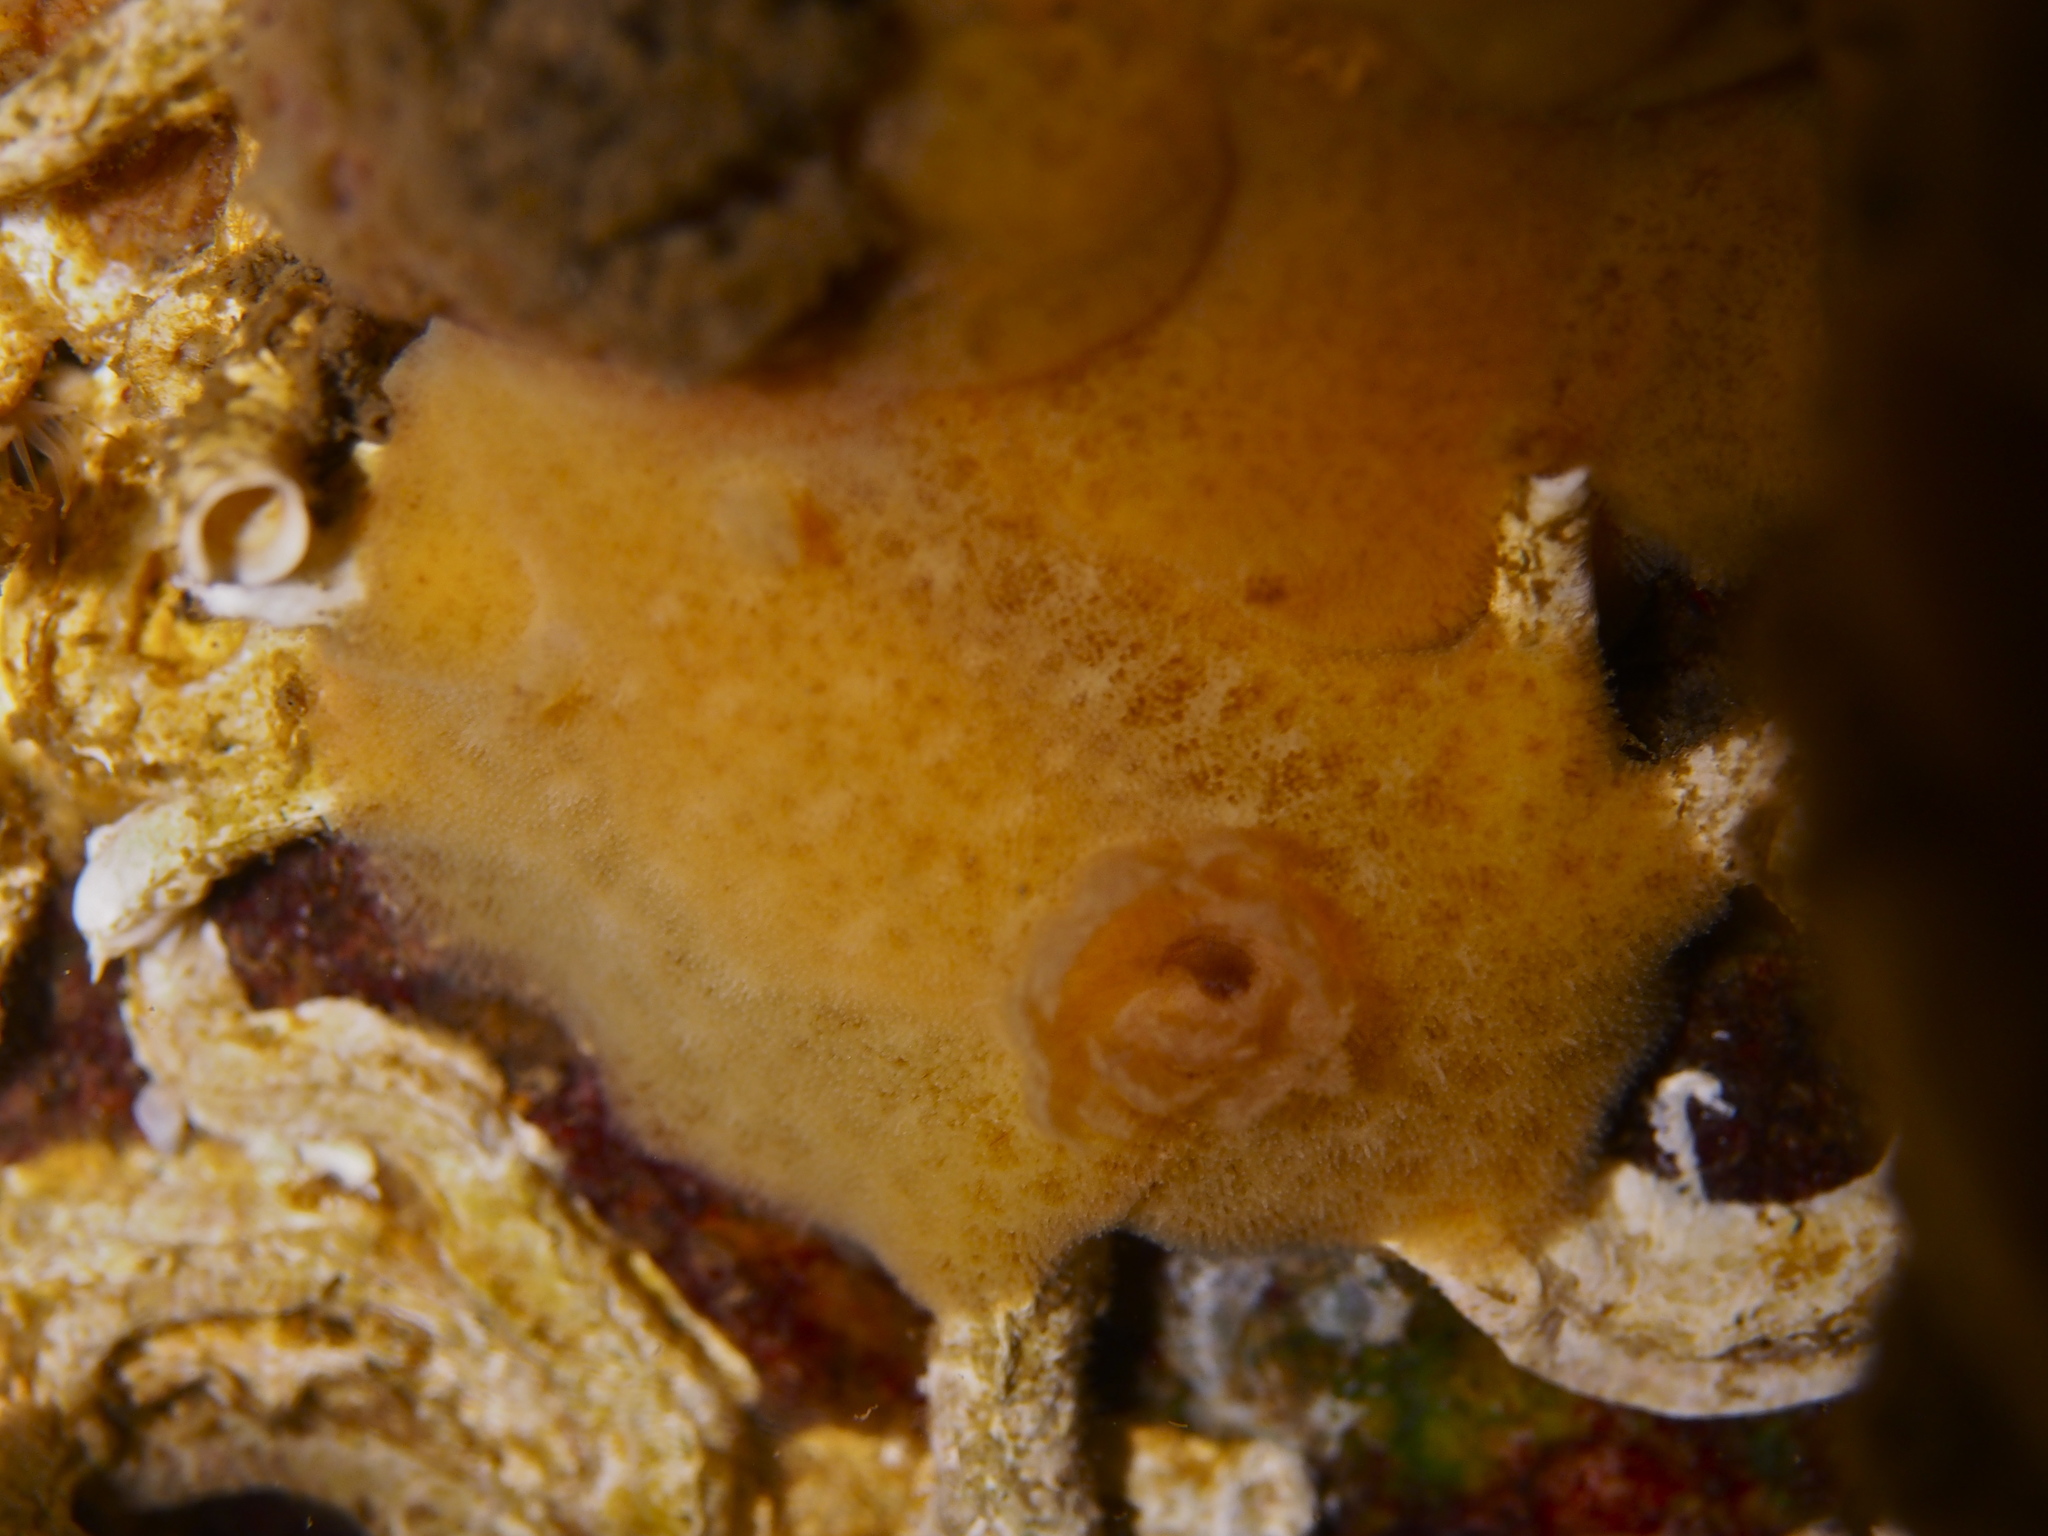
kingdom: Animalia
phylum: Mollusca
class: Gastropoda
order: Nudibranchia
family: Discodorididae
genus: Jorunna
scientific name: Jorunna tomentosa
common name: Grey sea slug
